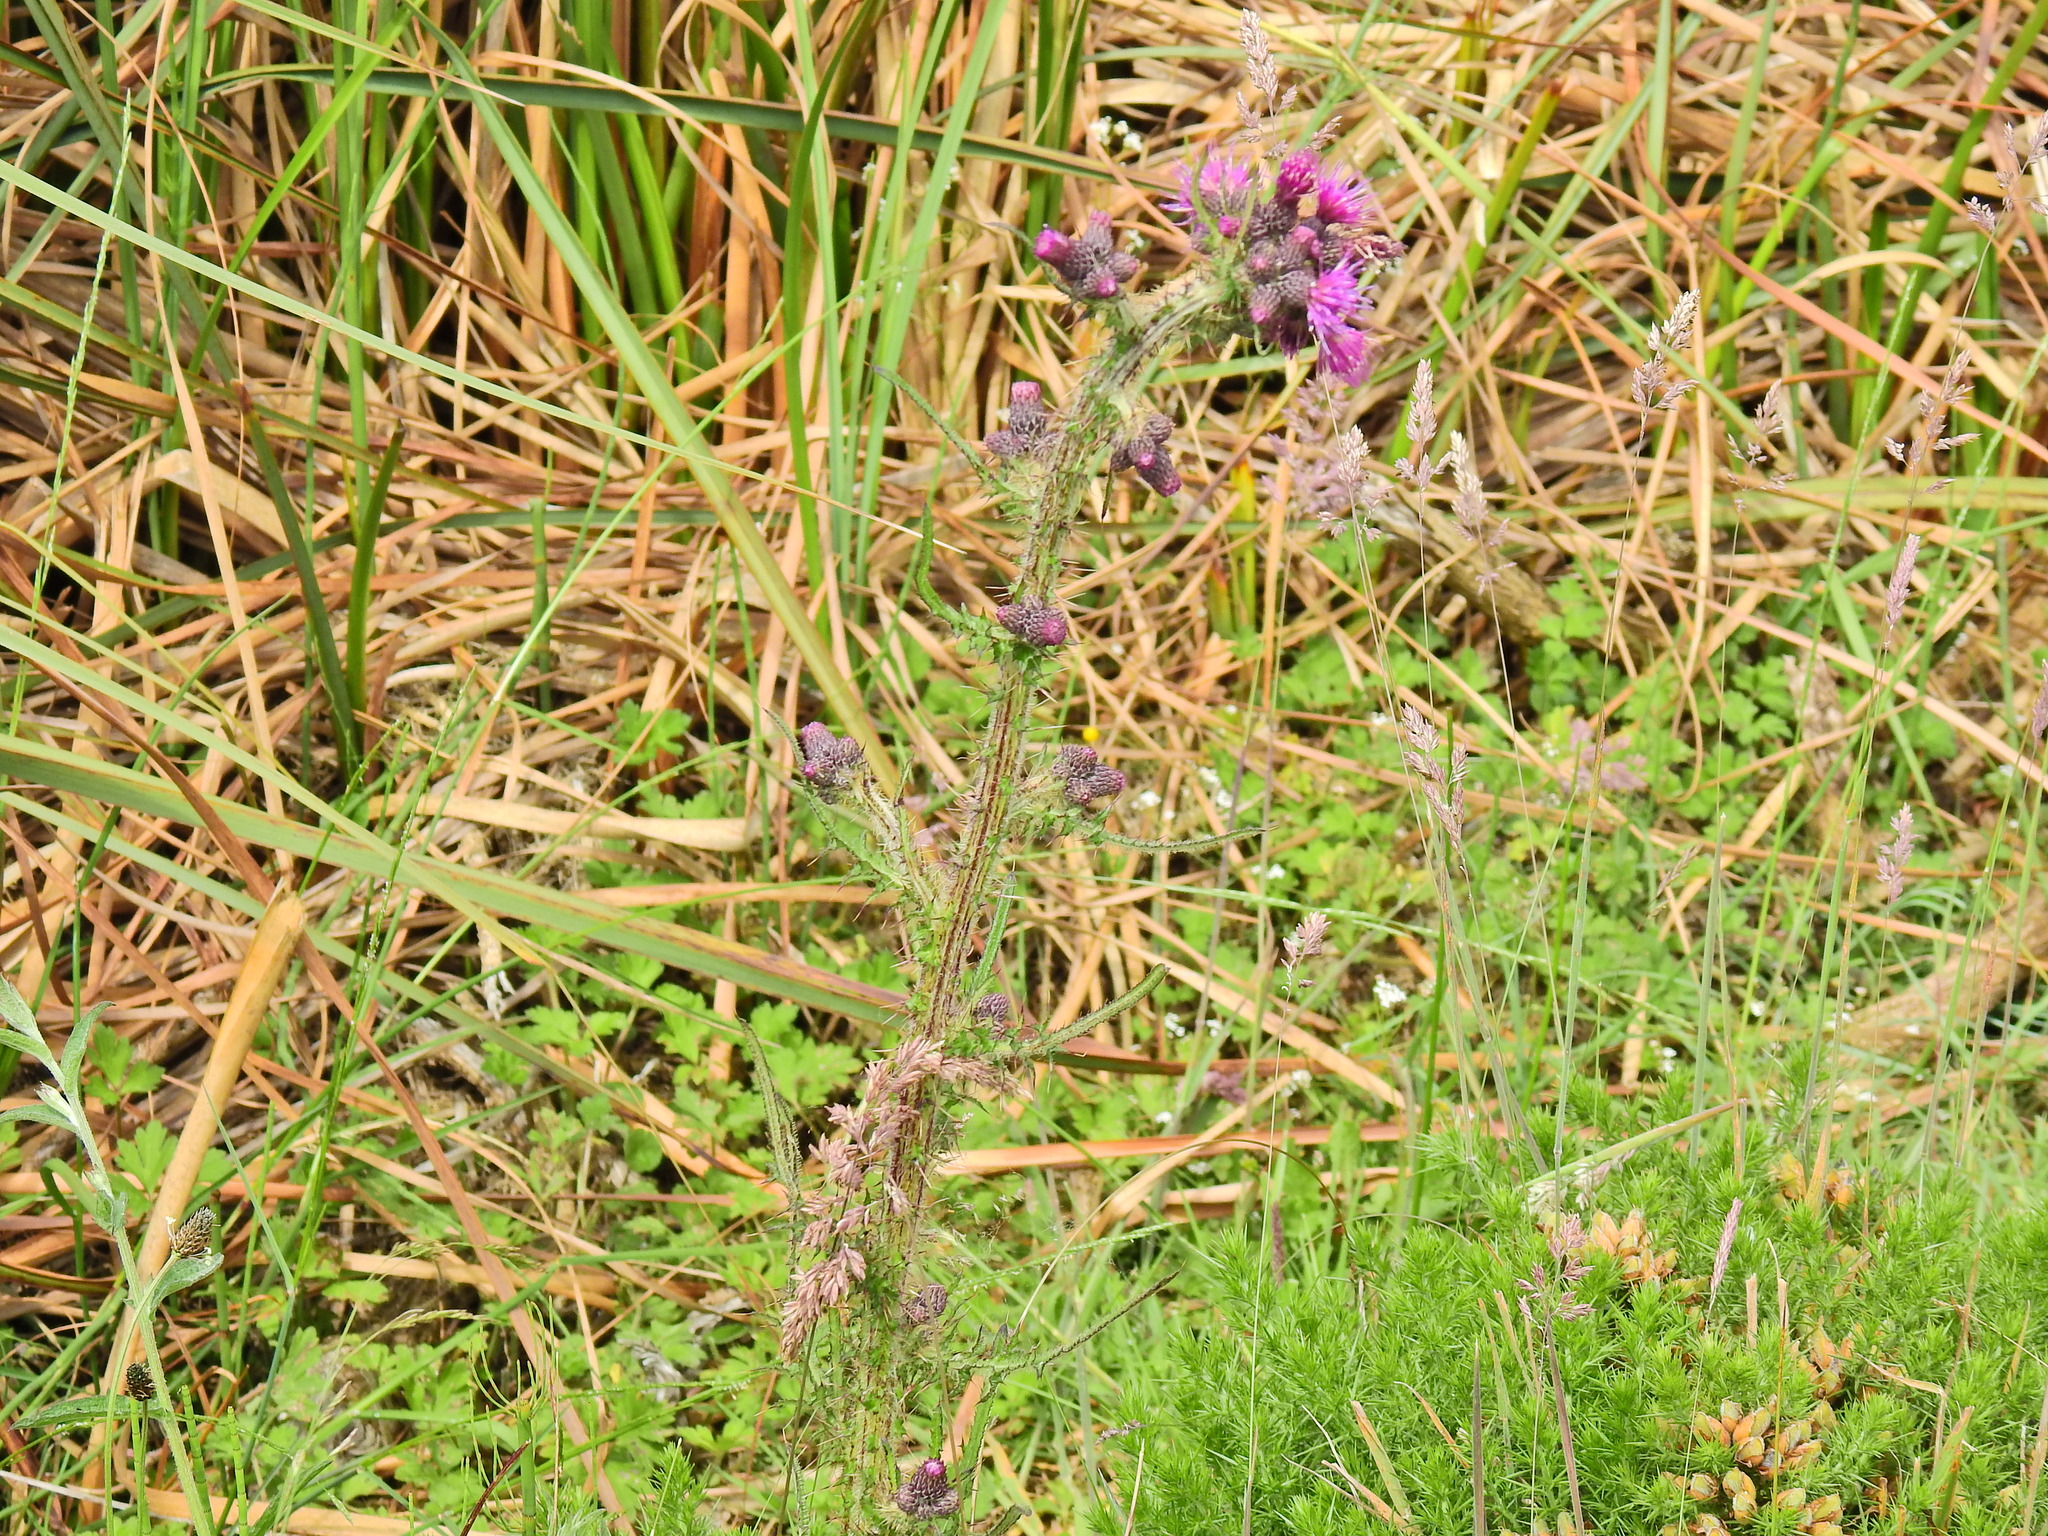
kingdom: Plantae
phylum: Tracheophyta
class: Magnoliopsida
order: Asterales
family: Asteraceae
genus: Cirsium
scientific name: Cirsium palustre
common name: Marsh thistle
